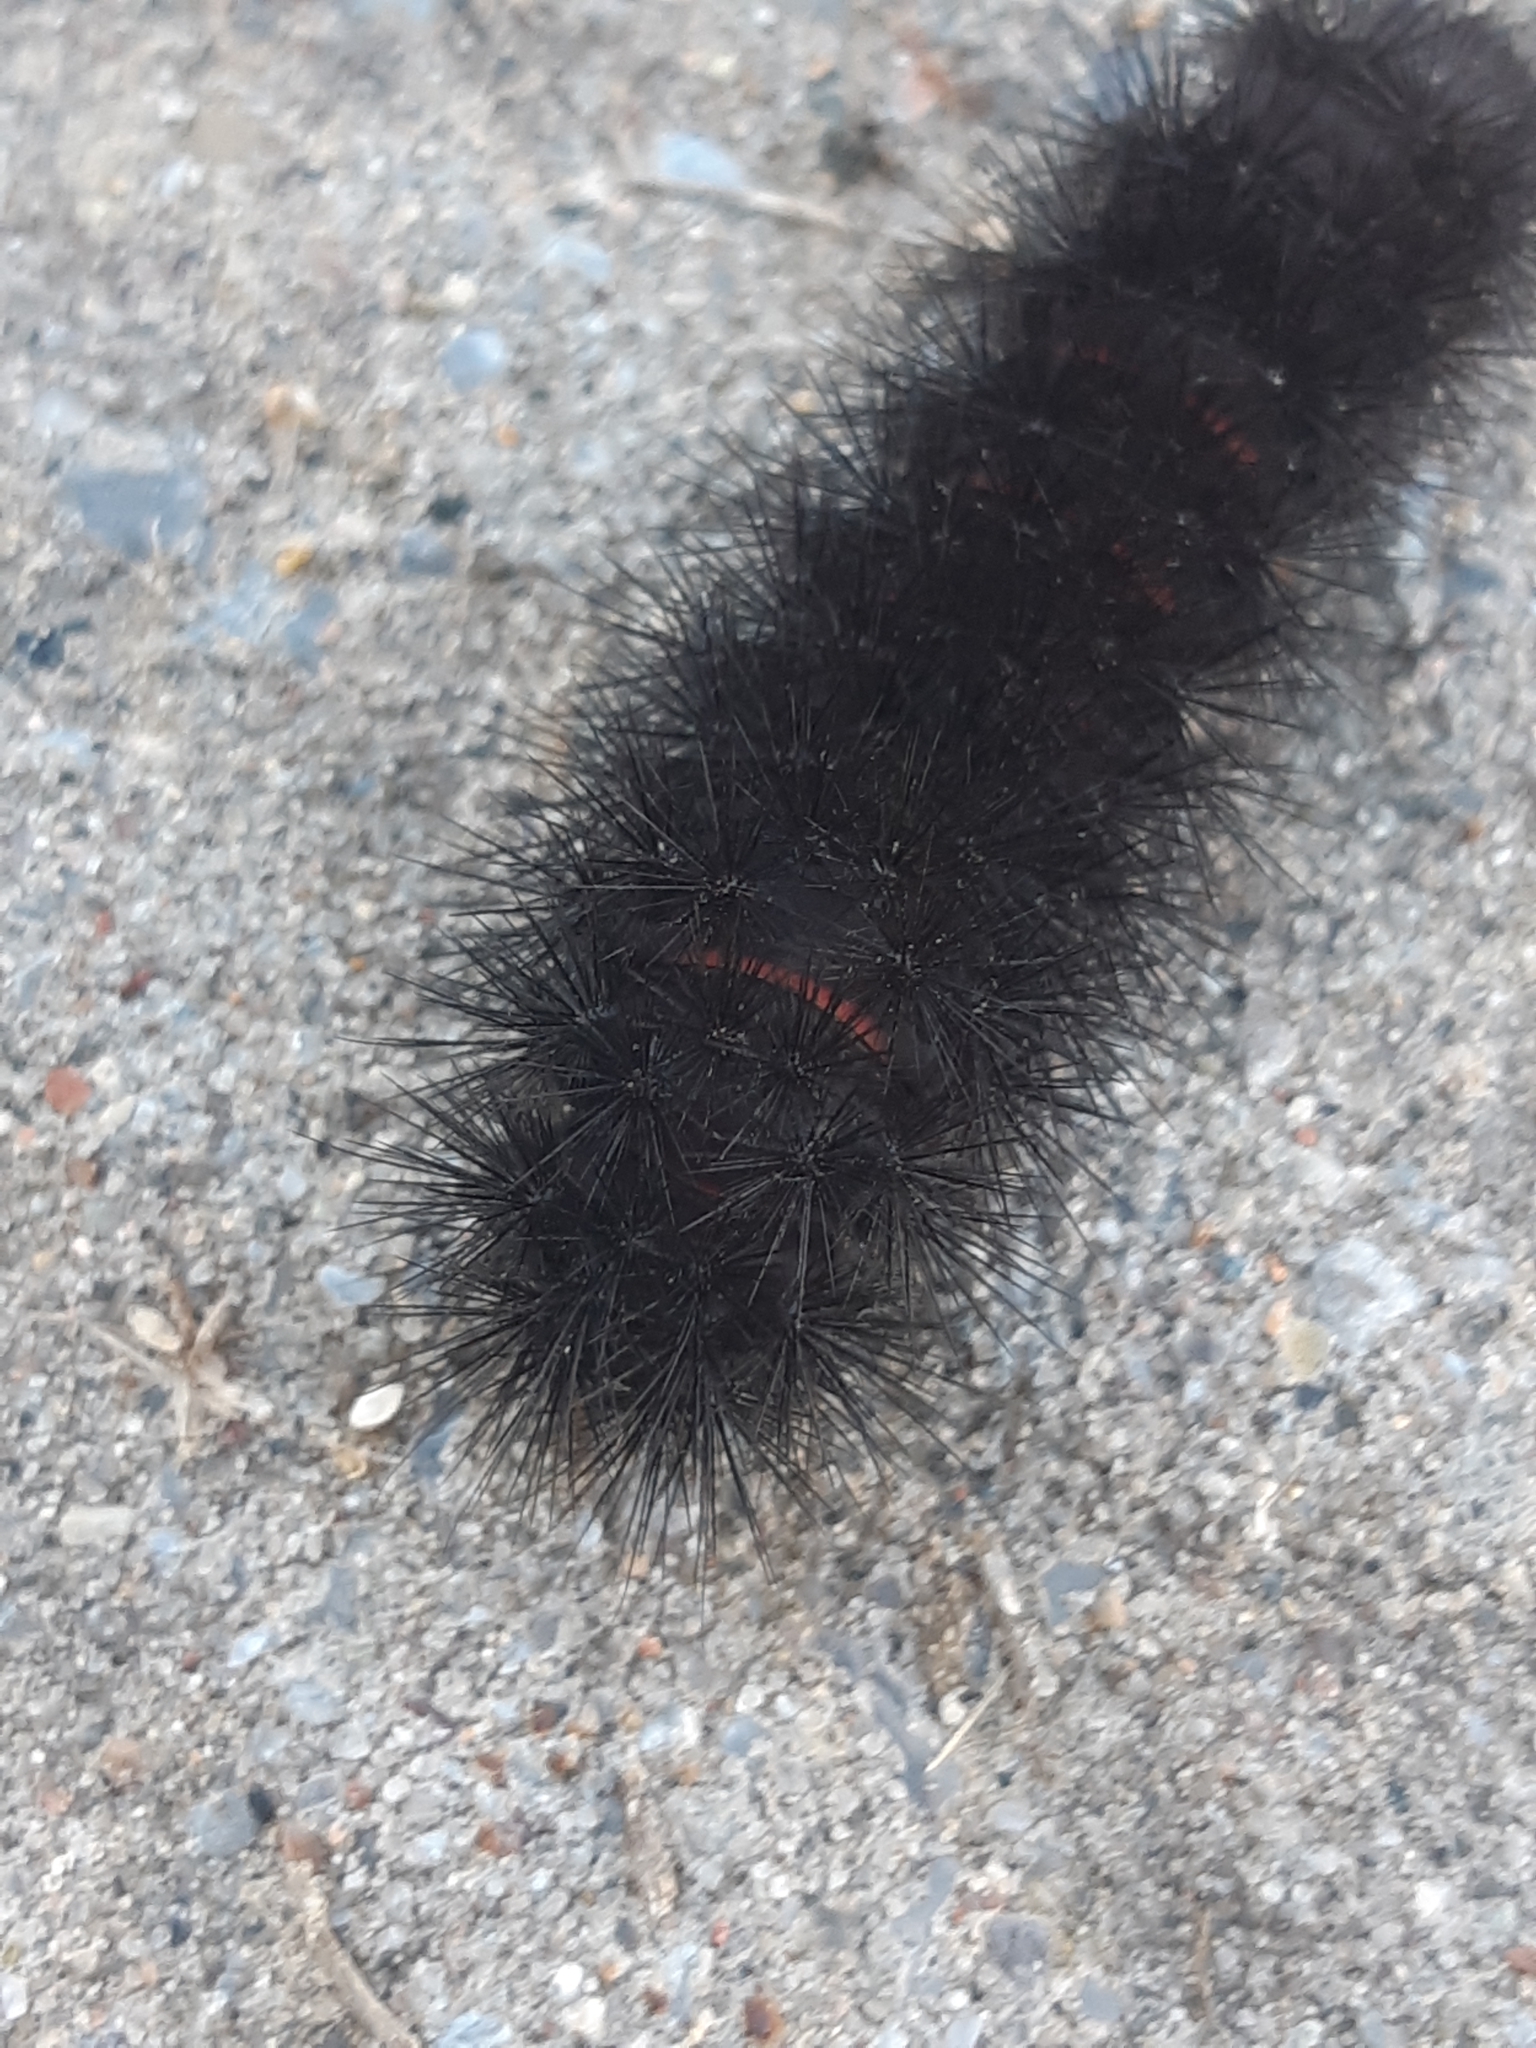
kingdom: Animalia
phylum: Arthropoda
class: Insecta
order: Lepidoptera
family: Erebidae
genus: Hypercompe
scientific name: Hypercompe scribonia
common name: Giant leopard moth
